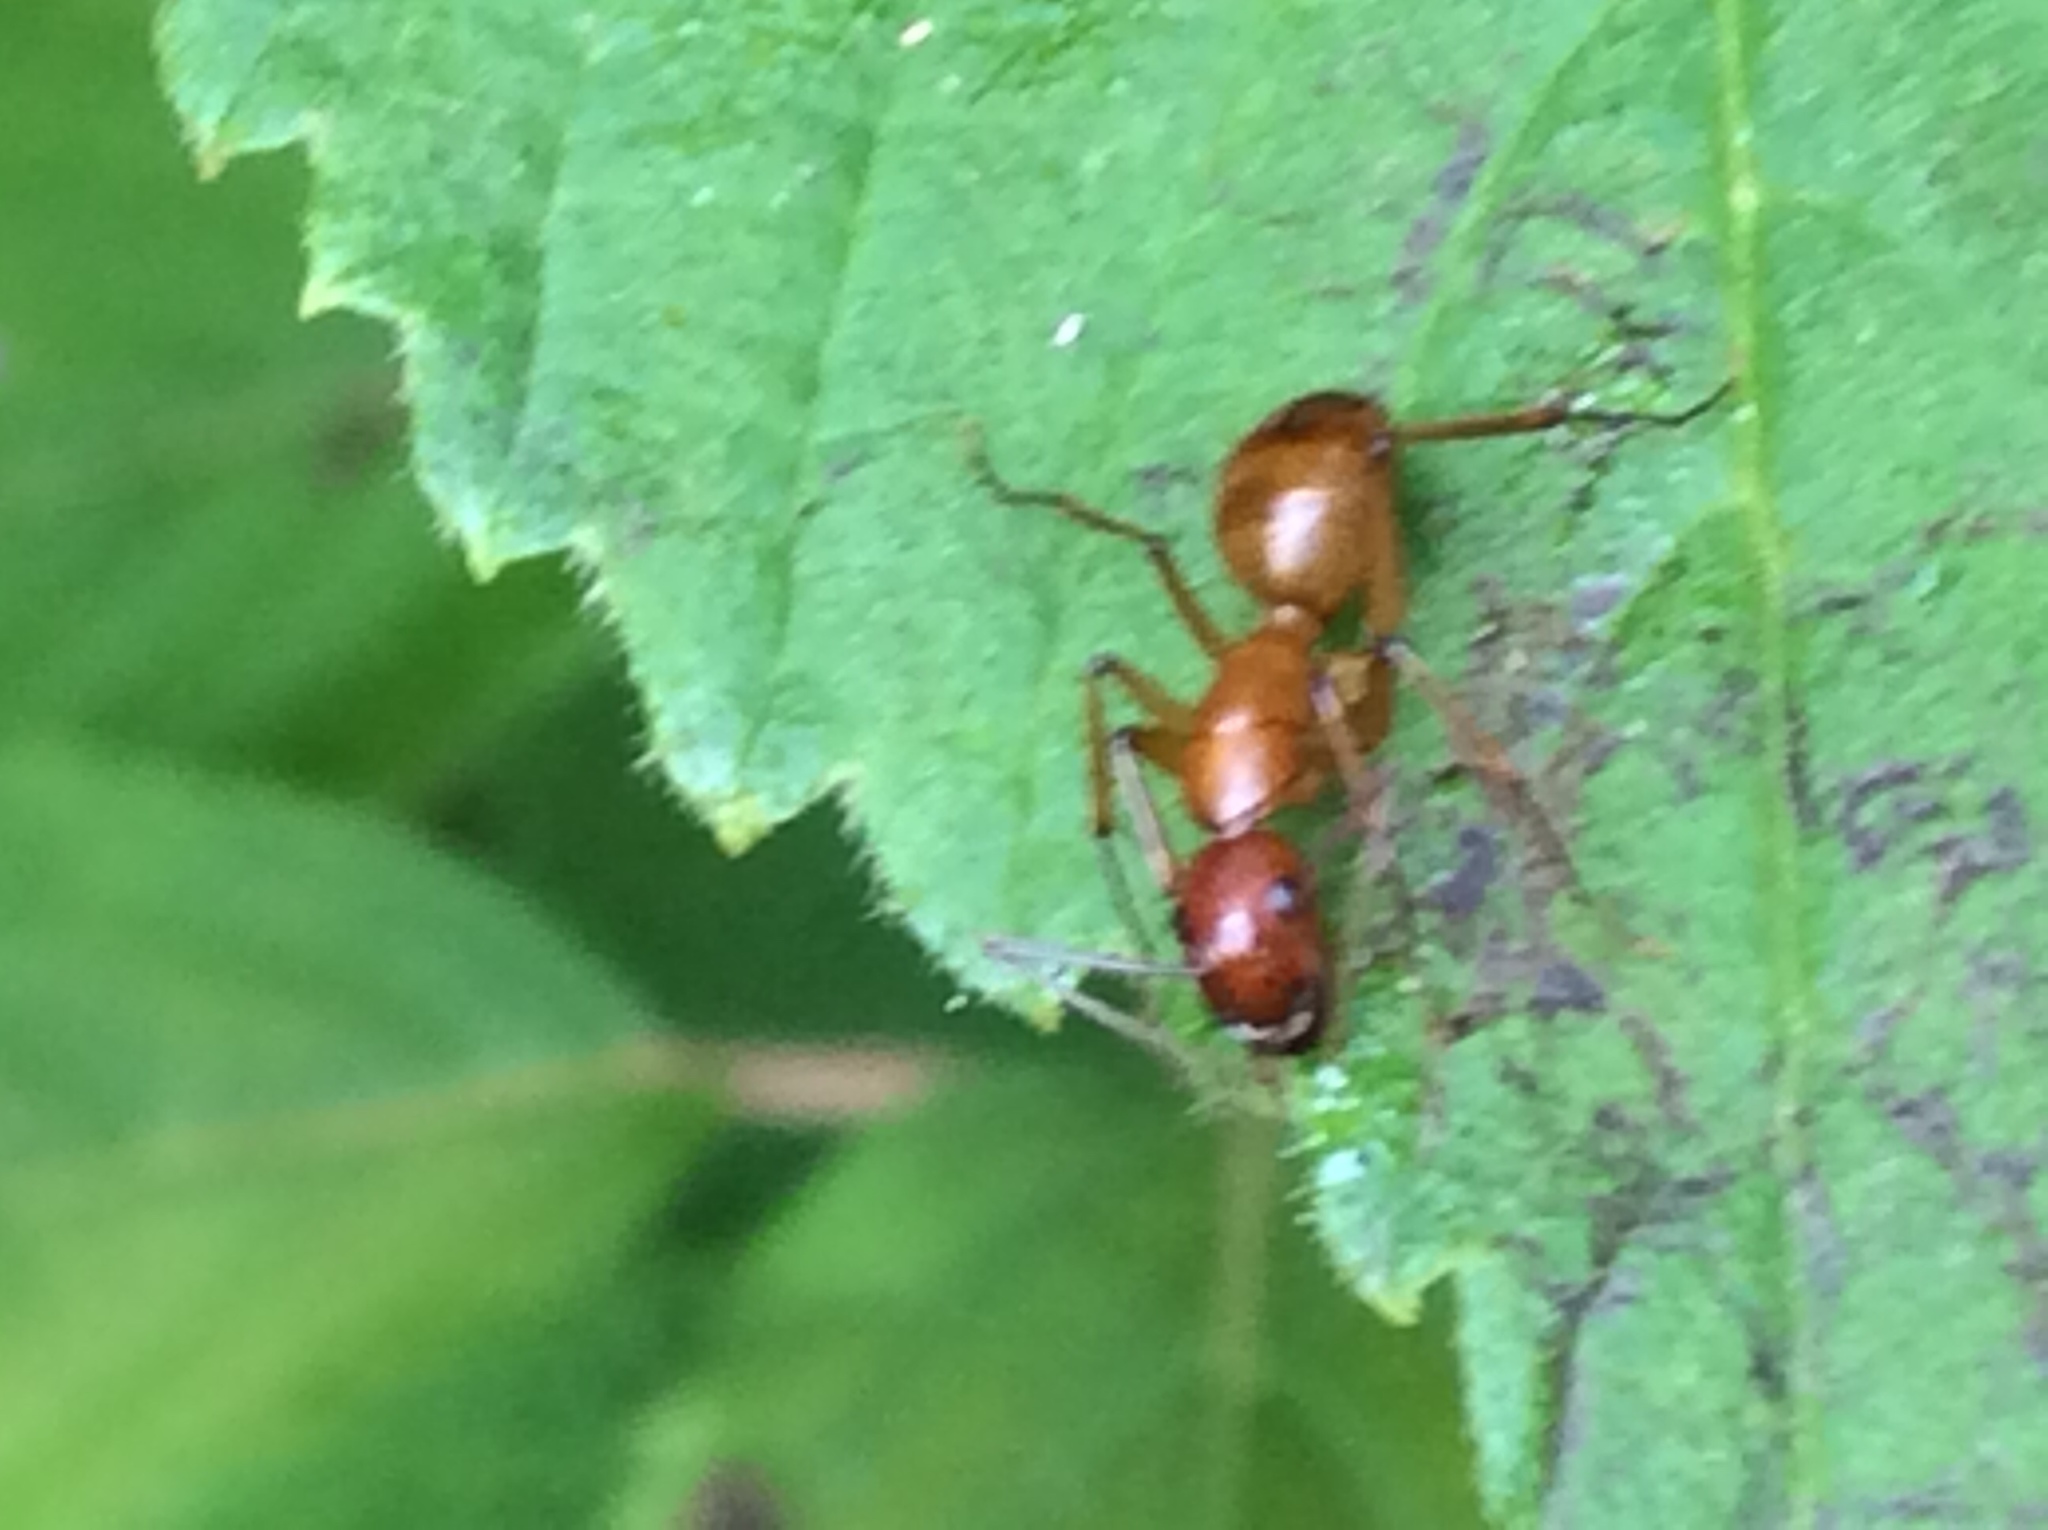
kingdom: Animalia
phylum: Arthropoda
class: Insecta
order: Hymenoptera
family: Formicidae
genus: Camponotus
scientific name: Camponotus castaneus
